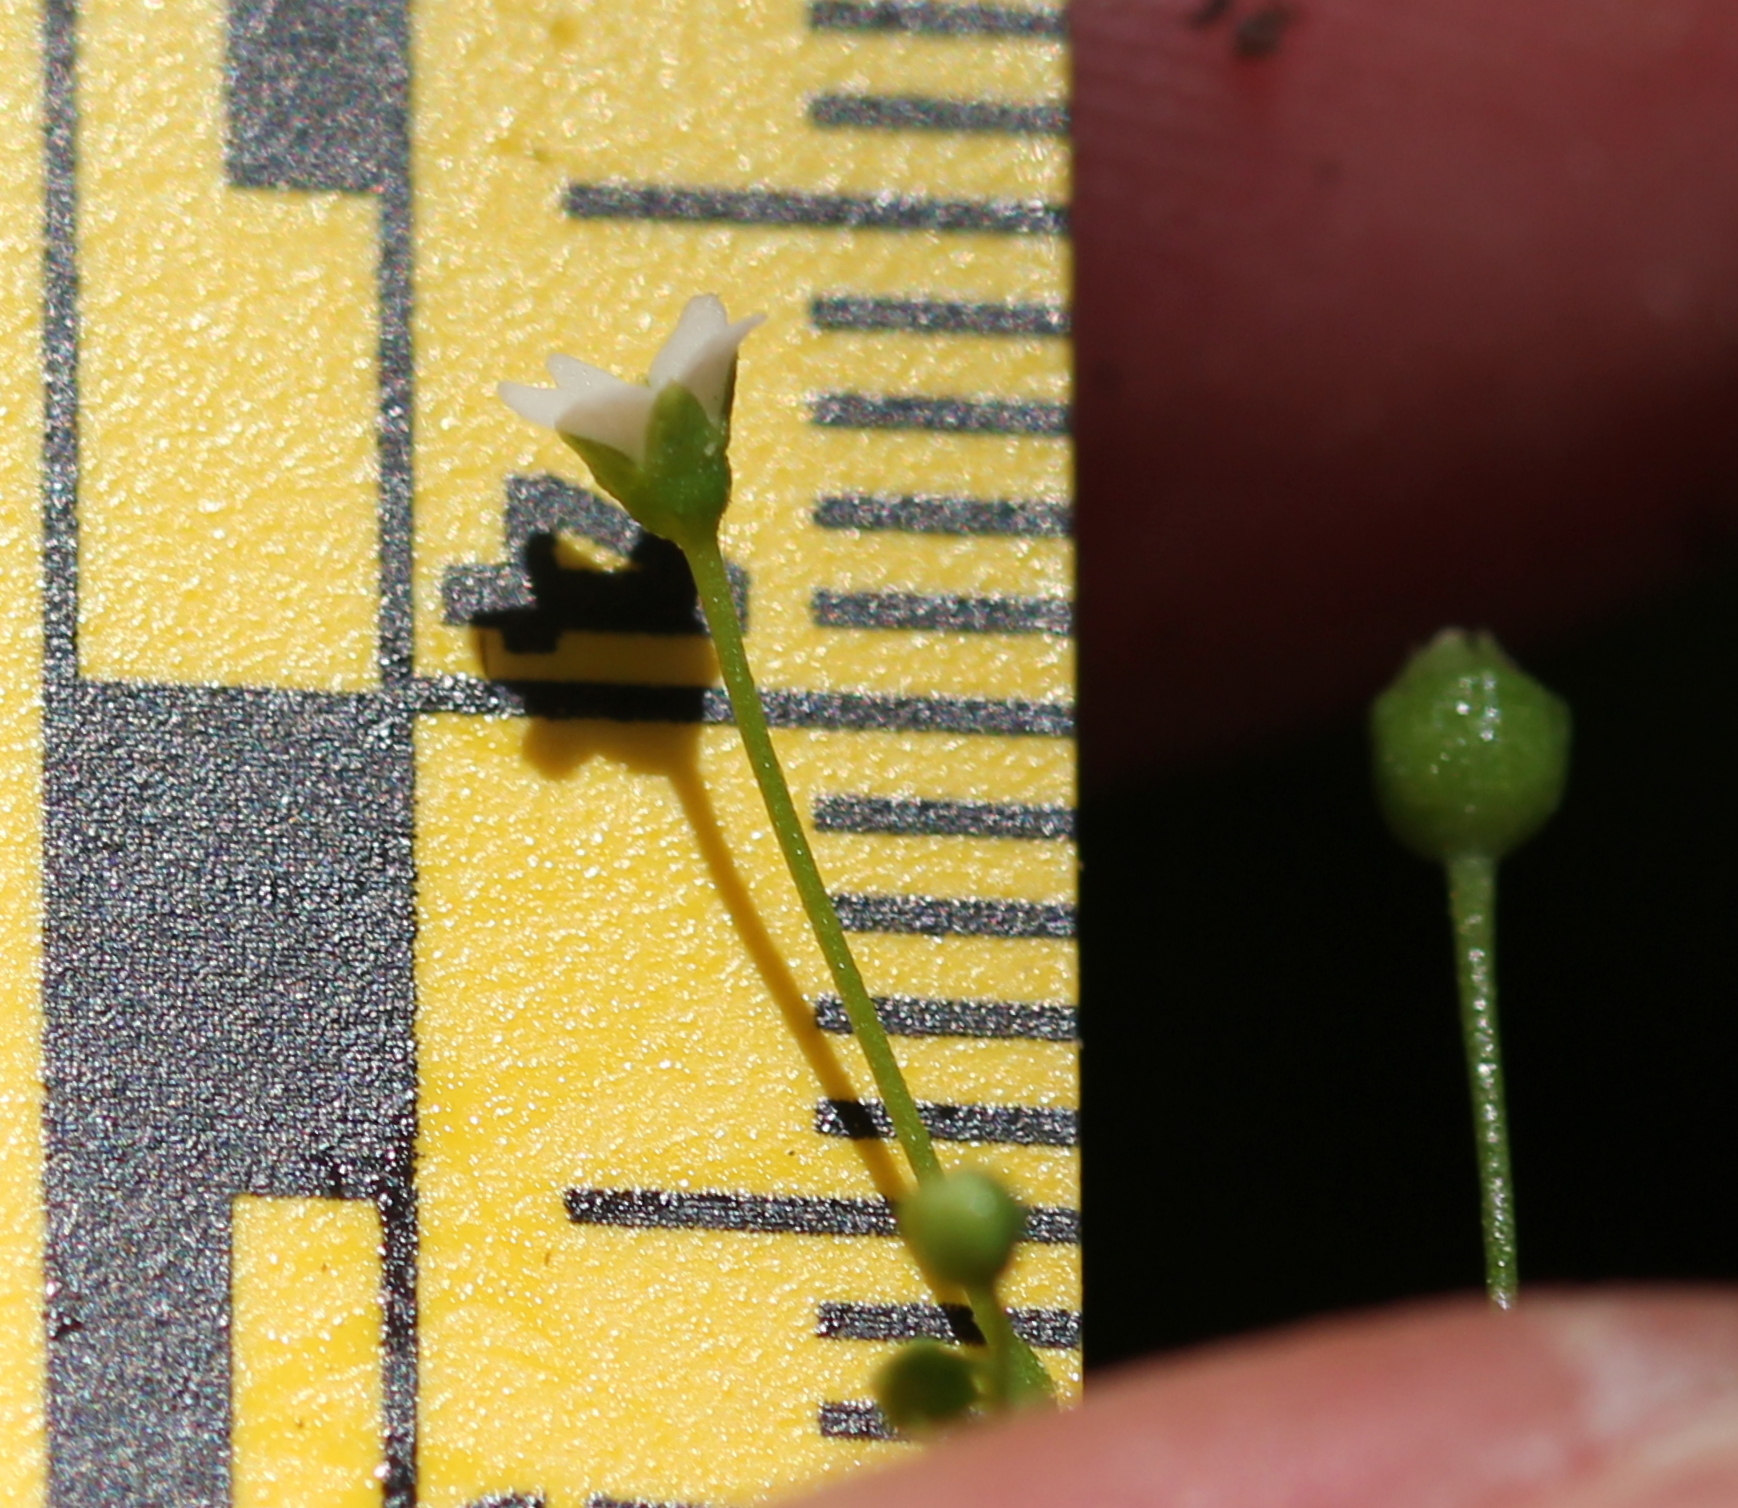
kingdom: Plantae
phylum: Tracheophyta
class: Magnoliopsida
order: Ericales
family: Primulaceae
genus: Samolus
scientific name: Samolus parviflorus
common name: False water pimpernel
